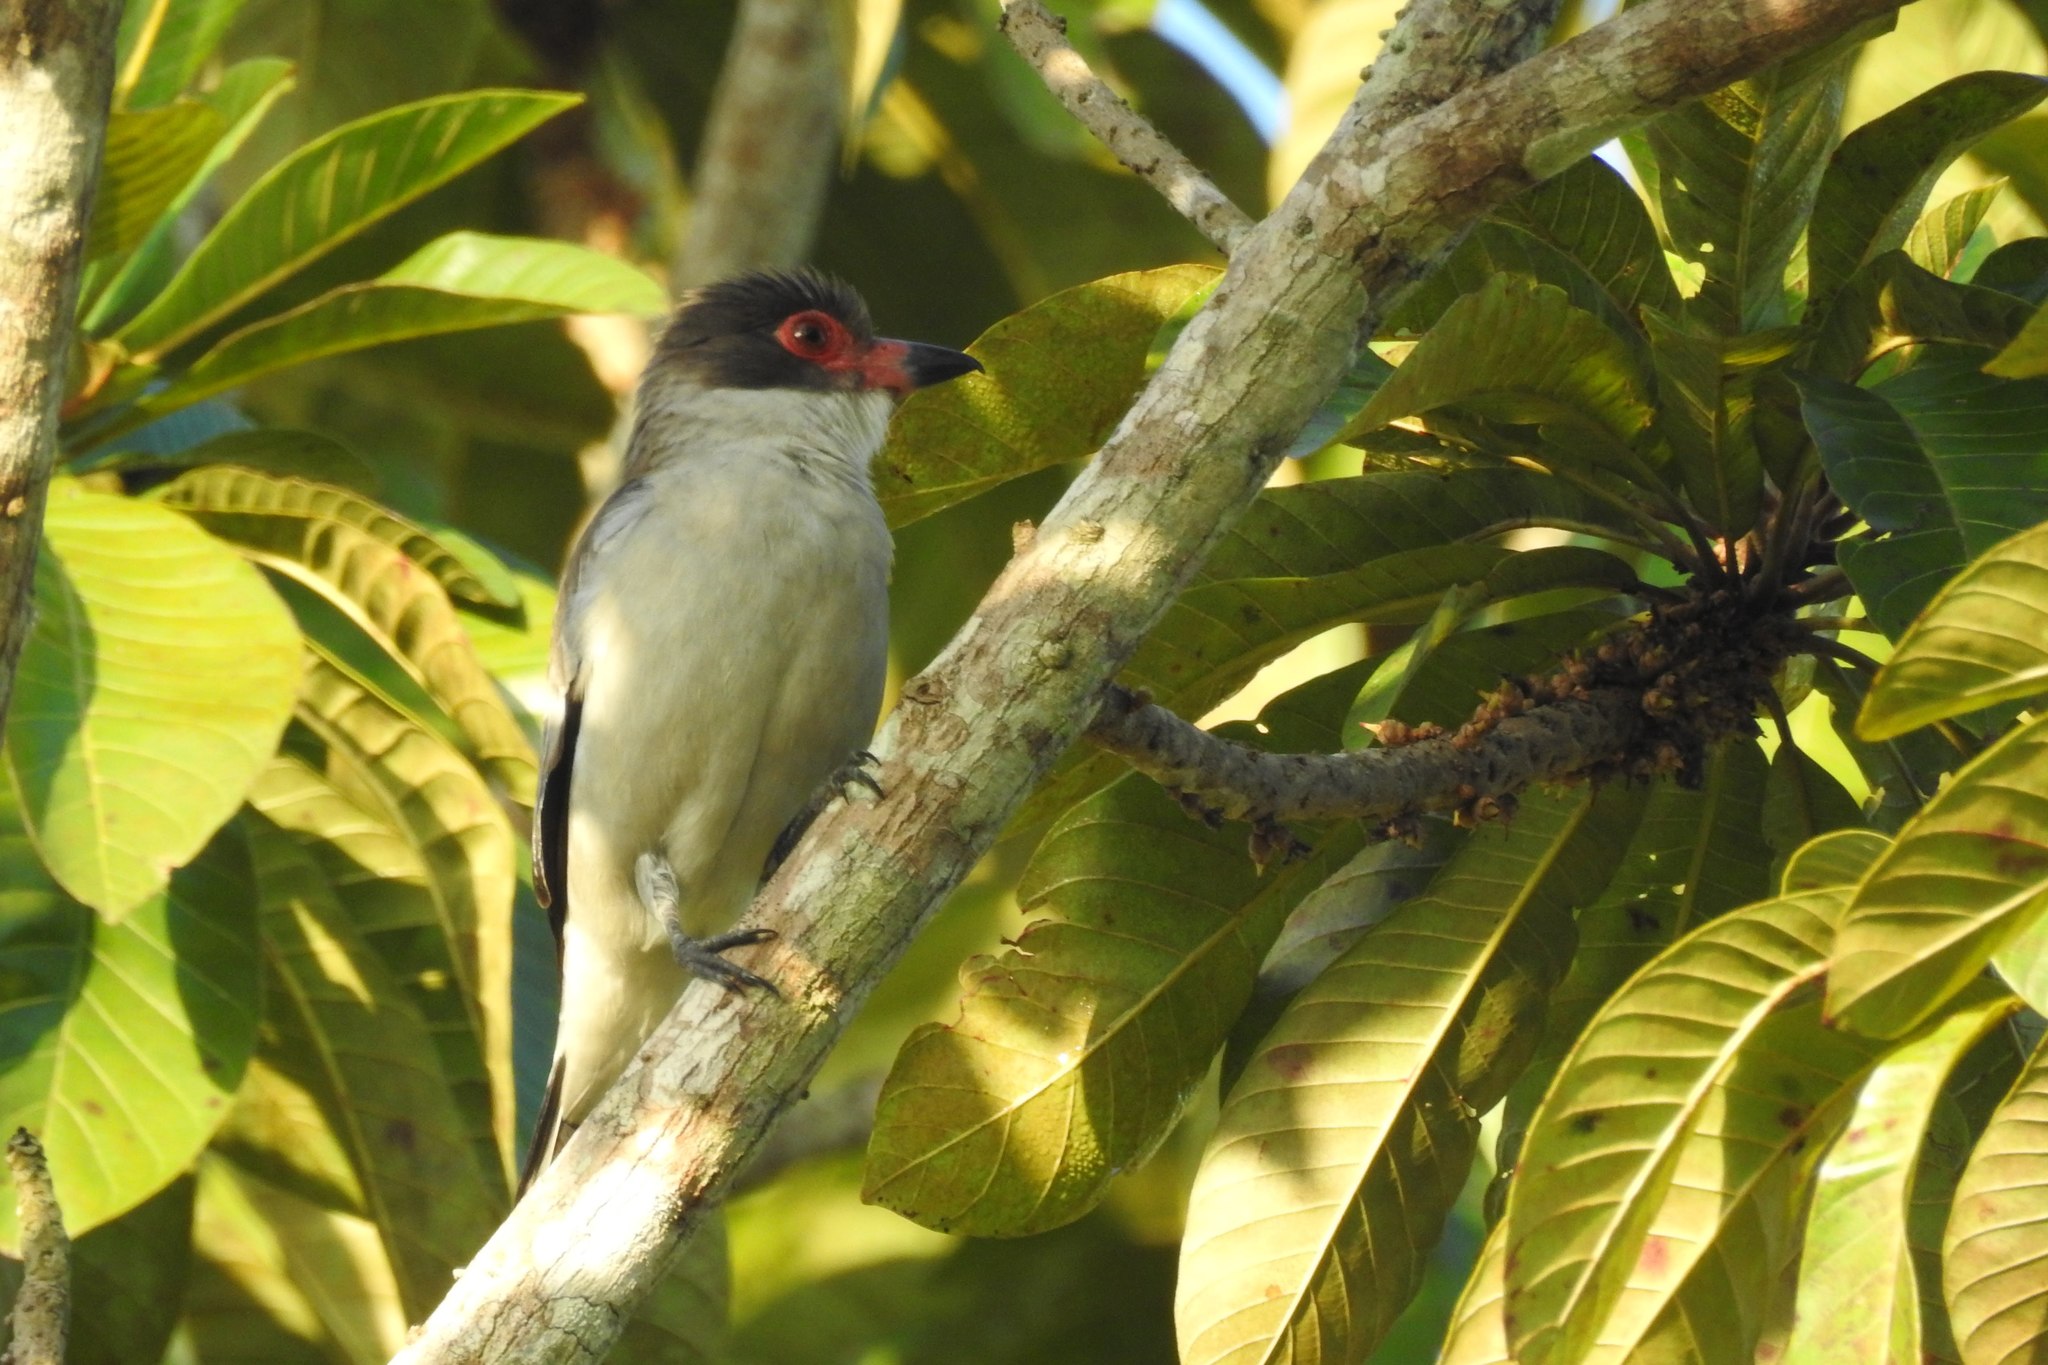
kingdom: Animalia
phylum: Chordata
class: Aves
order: Passeriformes
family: Cotingidae
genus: Tityra
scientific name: Tityra semifasciata
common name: Masked tityra
